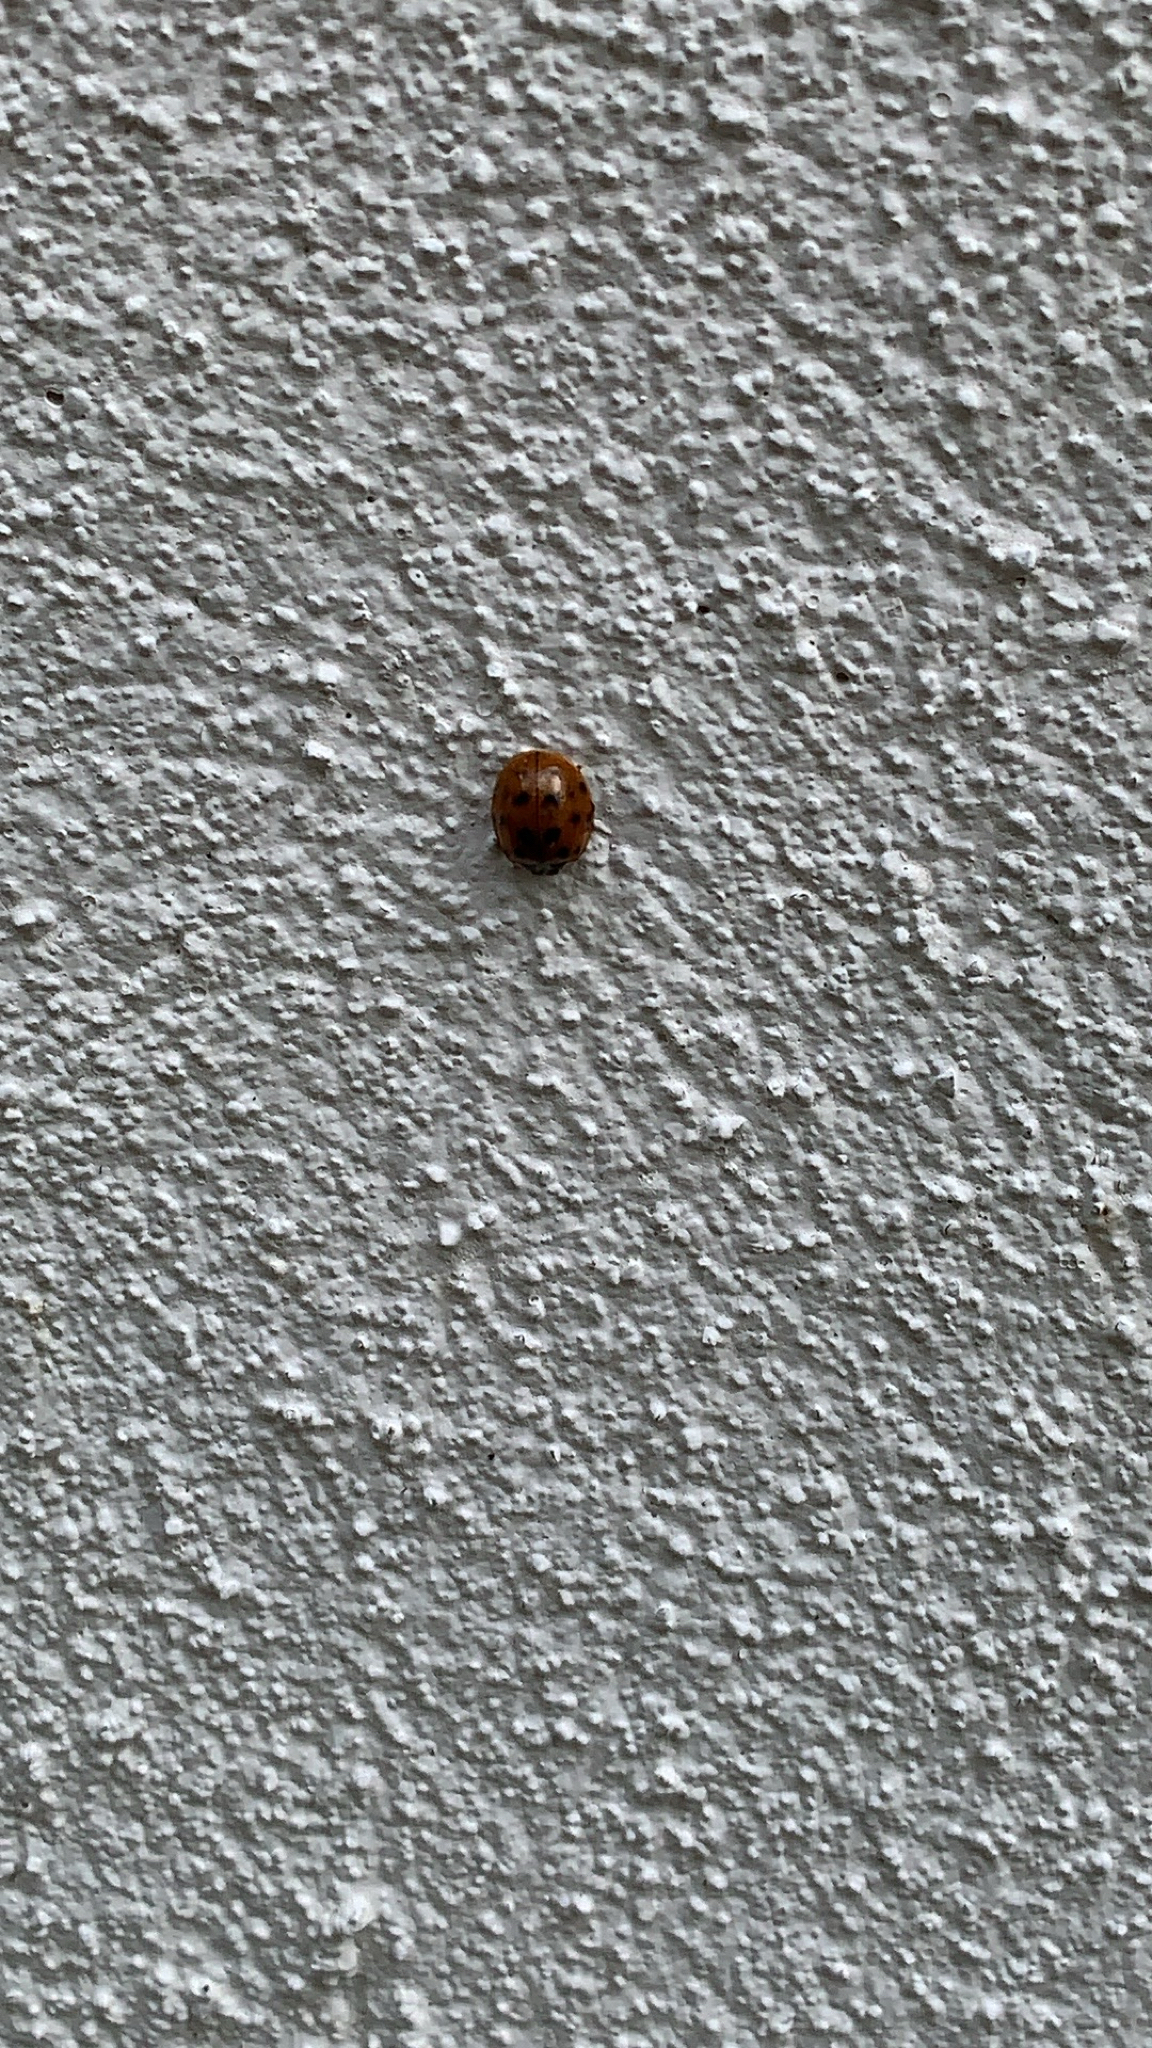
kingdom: Animalia
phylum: Arthropoda
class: Insecta
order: Coleoptera
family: Coccinellidae
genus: Harmonia
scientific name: Harmonia axyridis
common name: Harlequin ladybird
